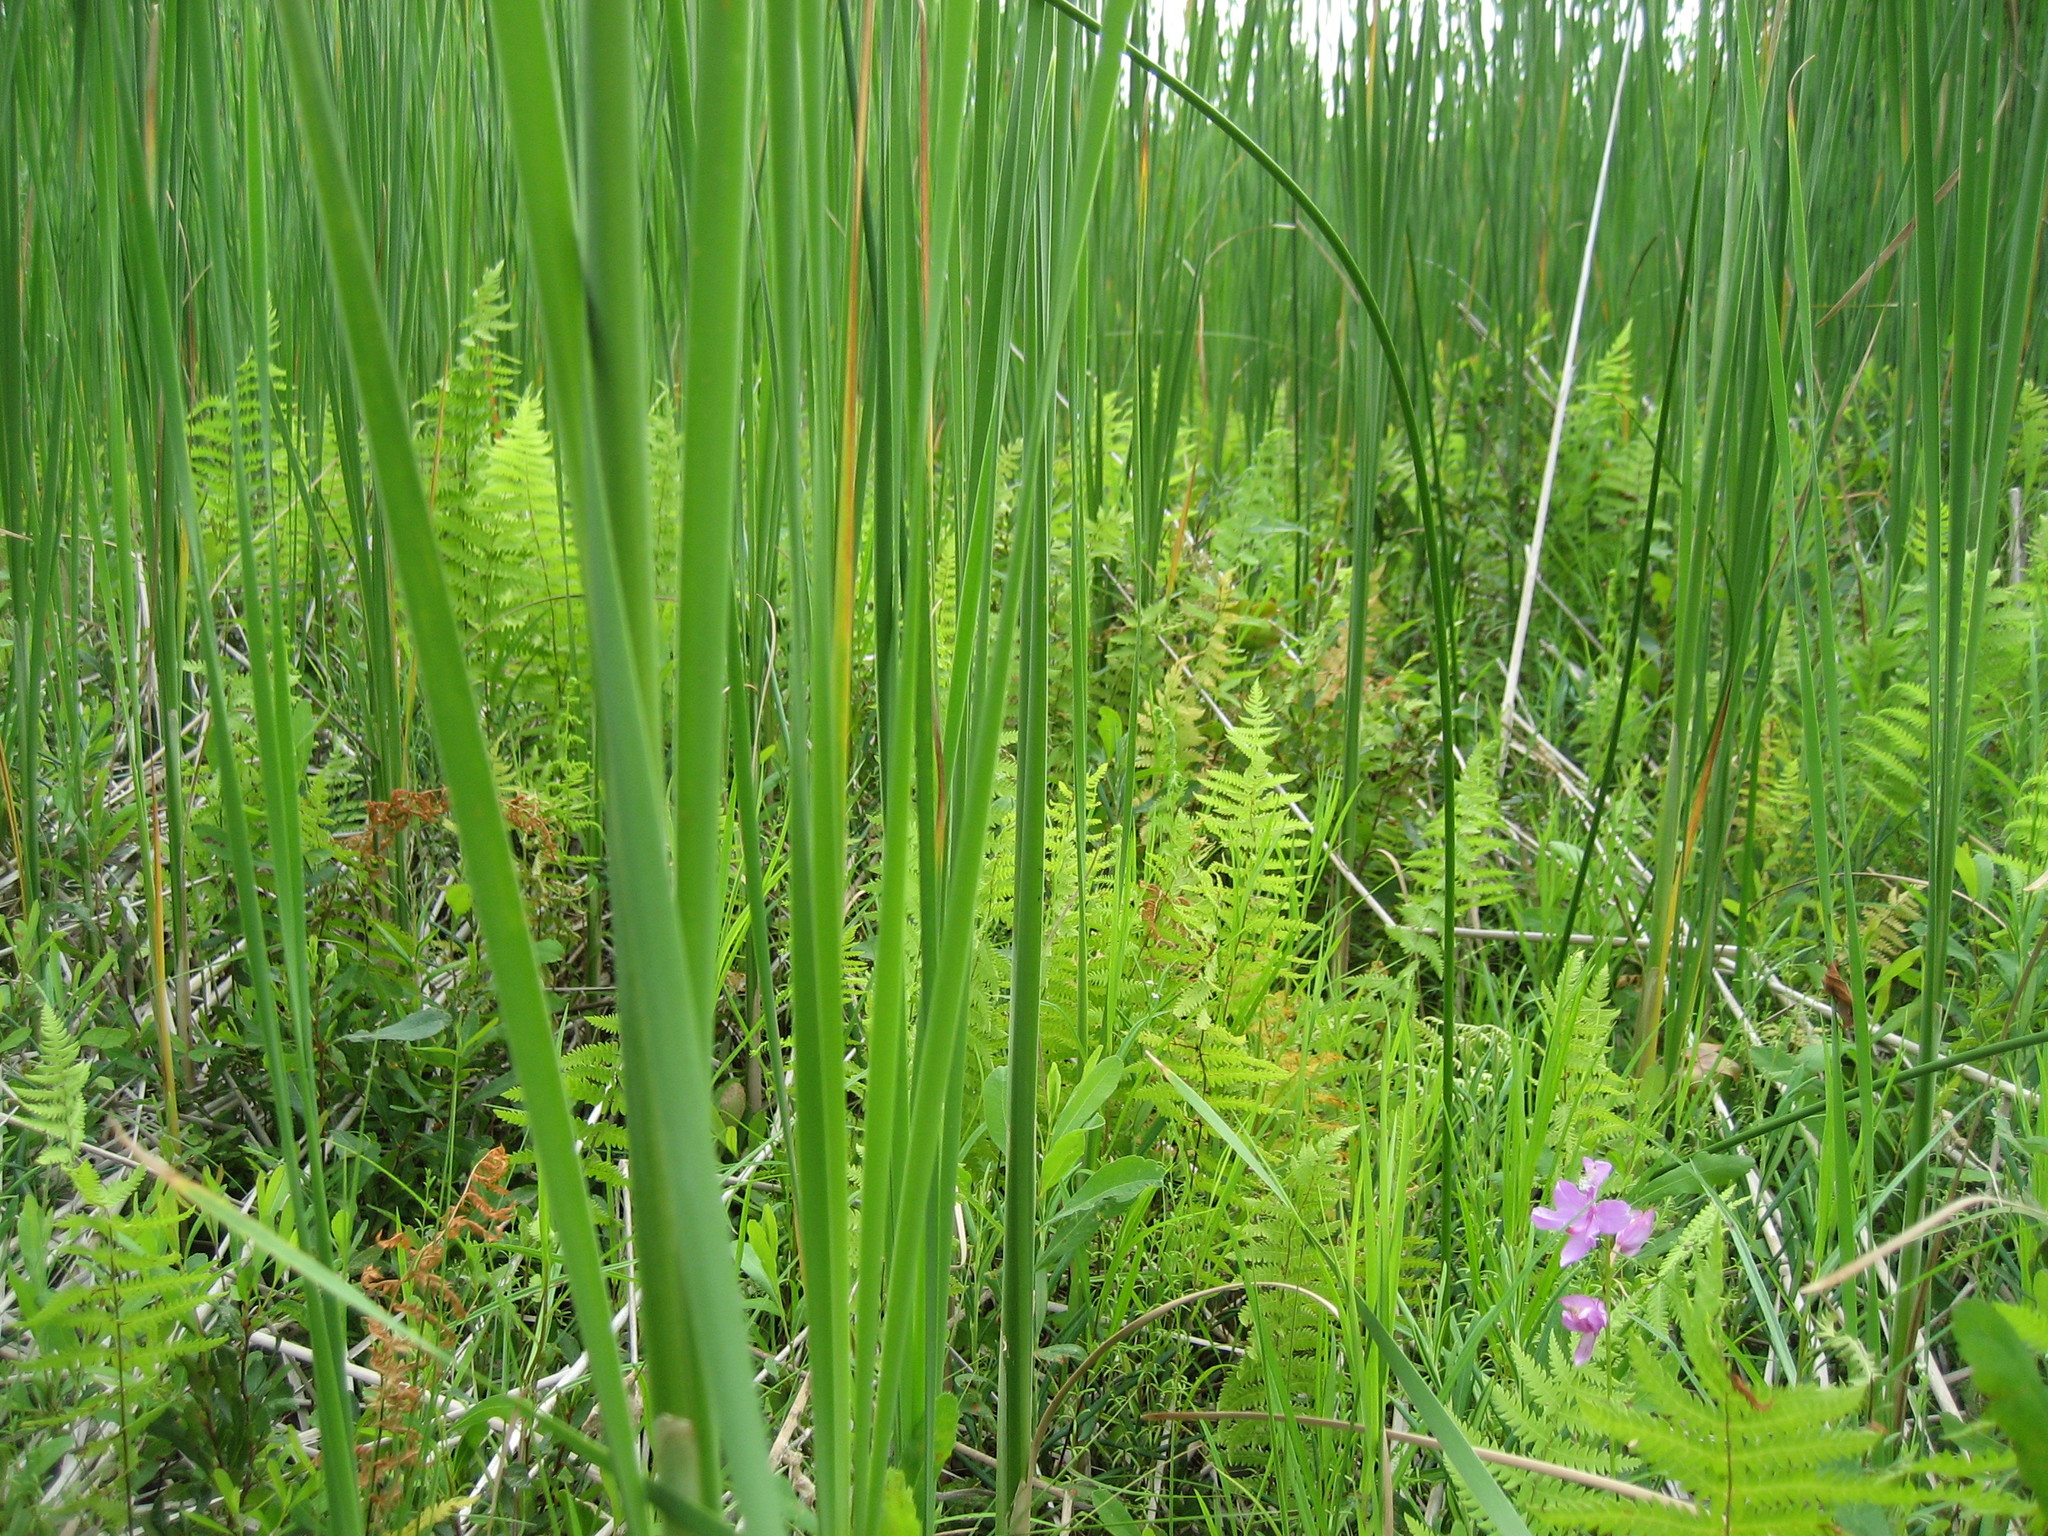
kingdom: Plantae
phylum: Tracheophyta
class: Polypodiopsida
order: Polypodiales
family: Thelypteridaceae
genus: Thelypteris
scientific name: Thelypteris palustris
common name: Marsh fern
